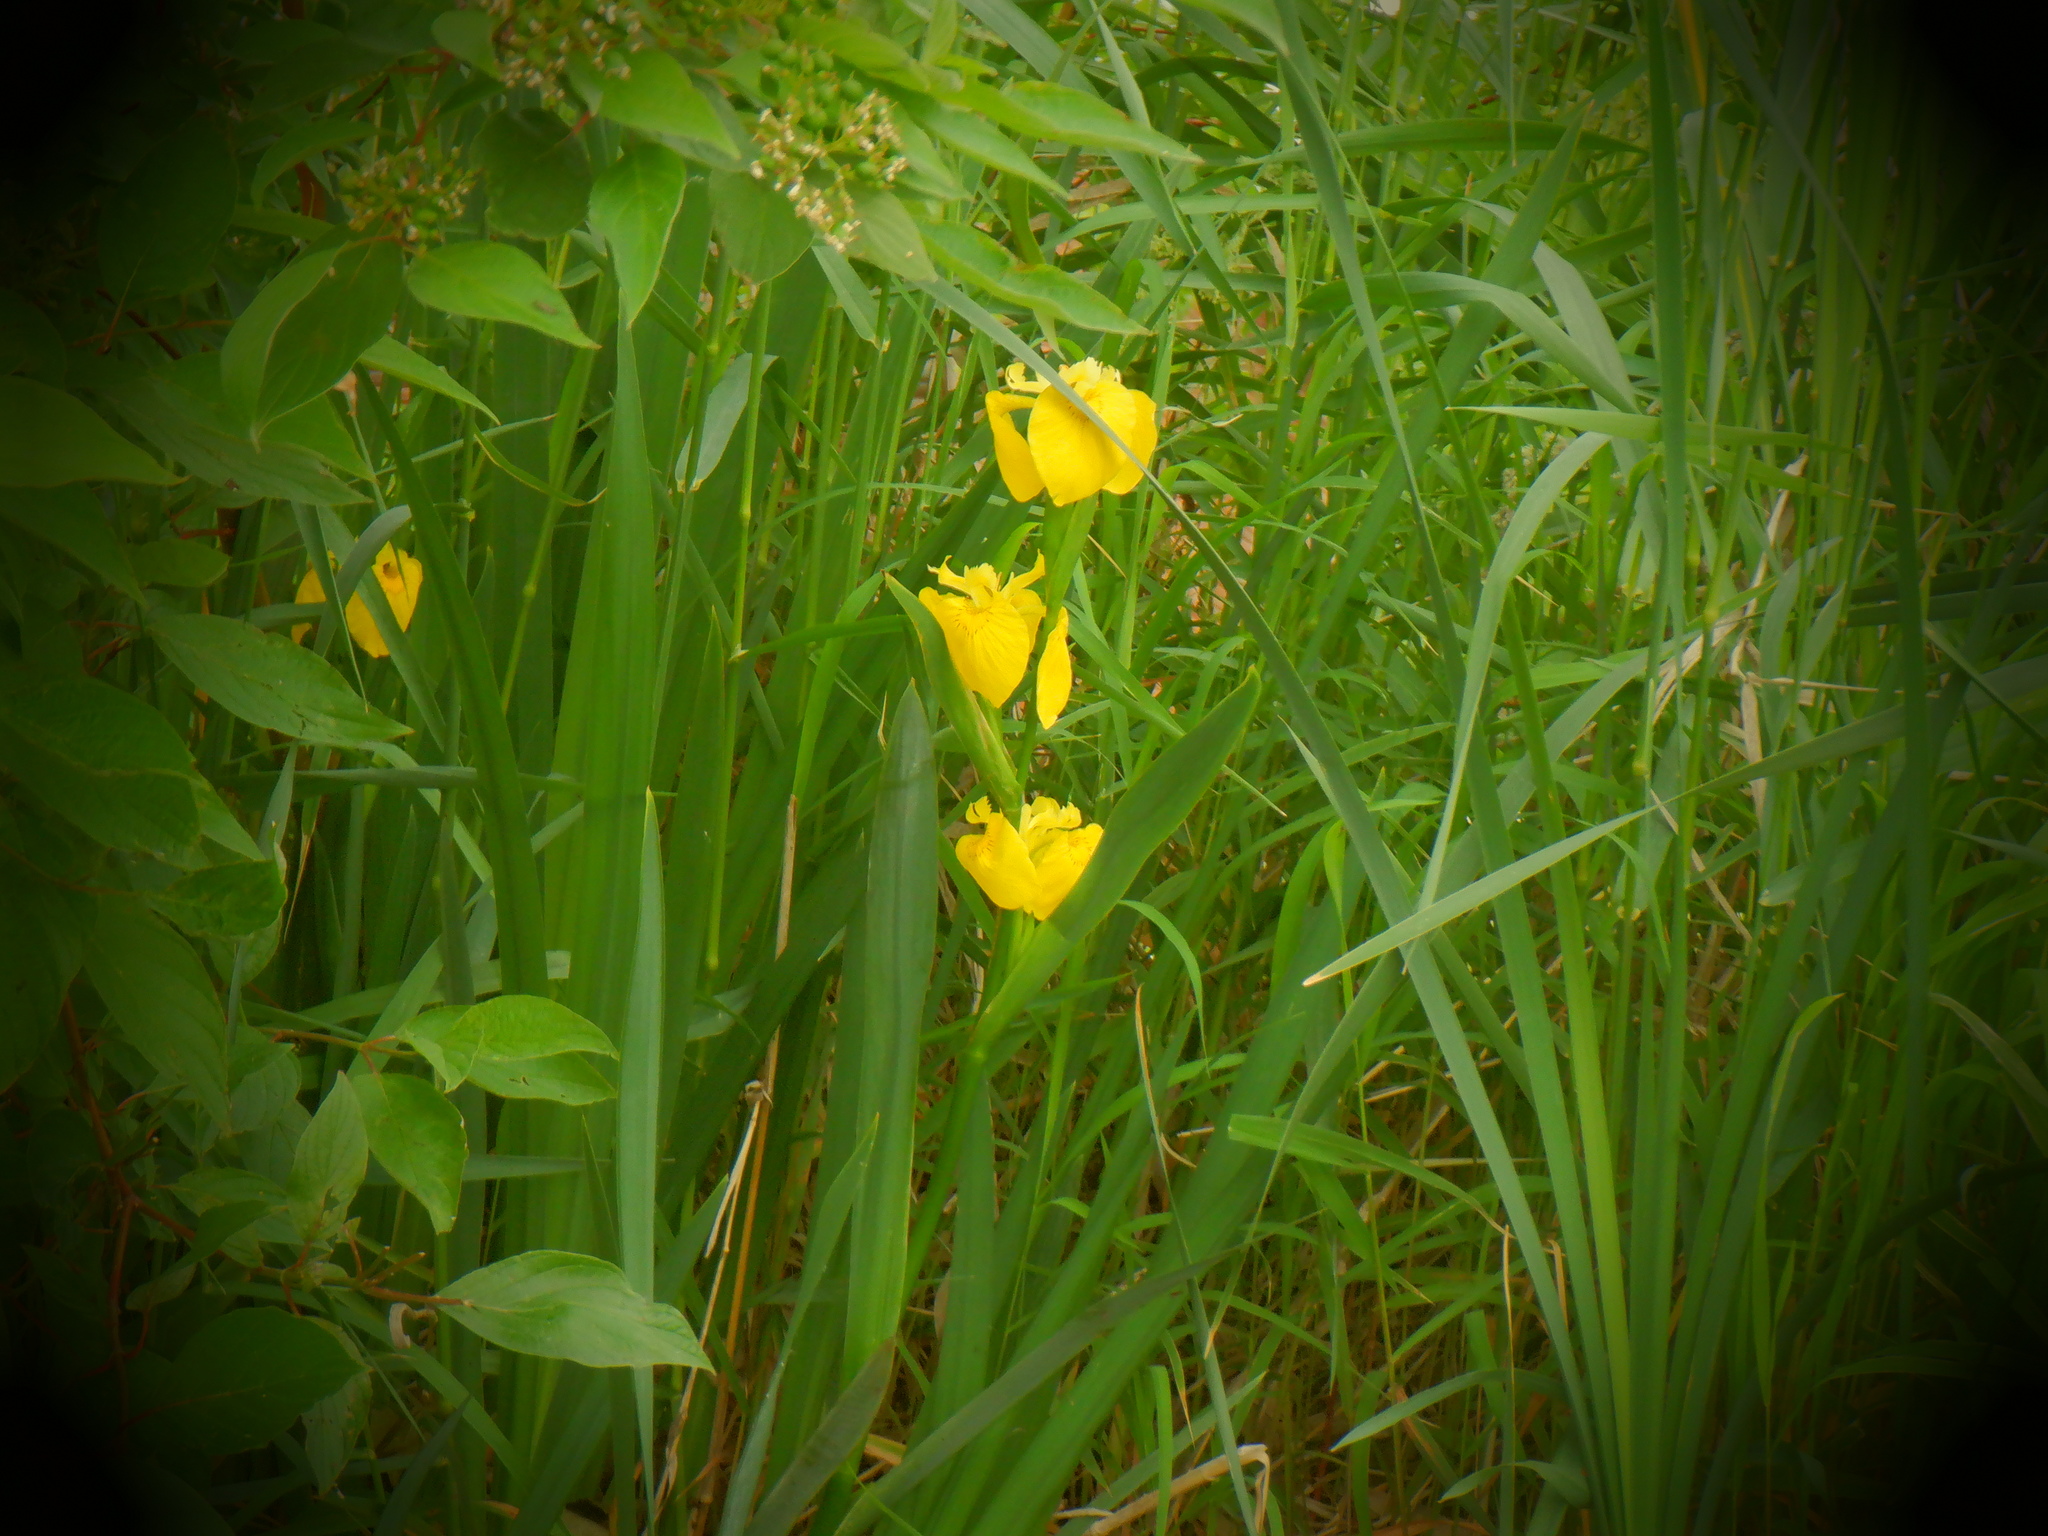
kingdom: Plantae
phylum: Tracheophyta
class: Liliopsida
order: Asparagales
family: Iridaceae
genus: Iris
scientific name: Iris pseudacorus
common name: Yellow flag
